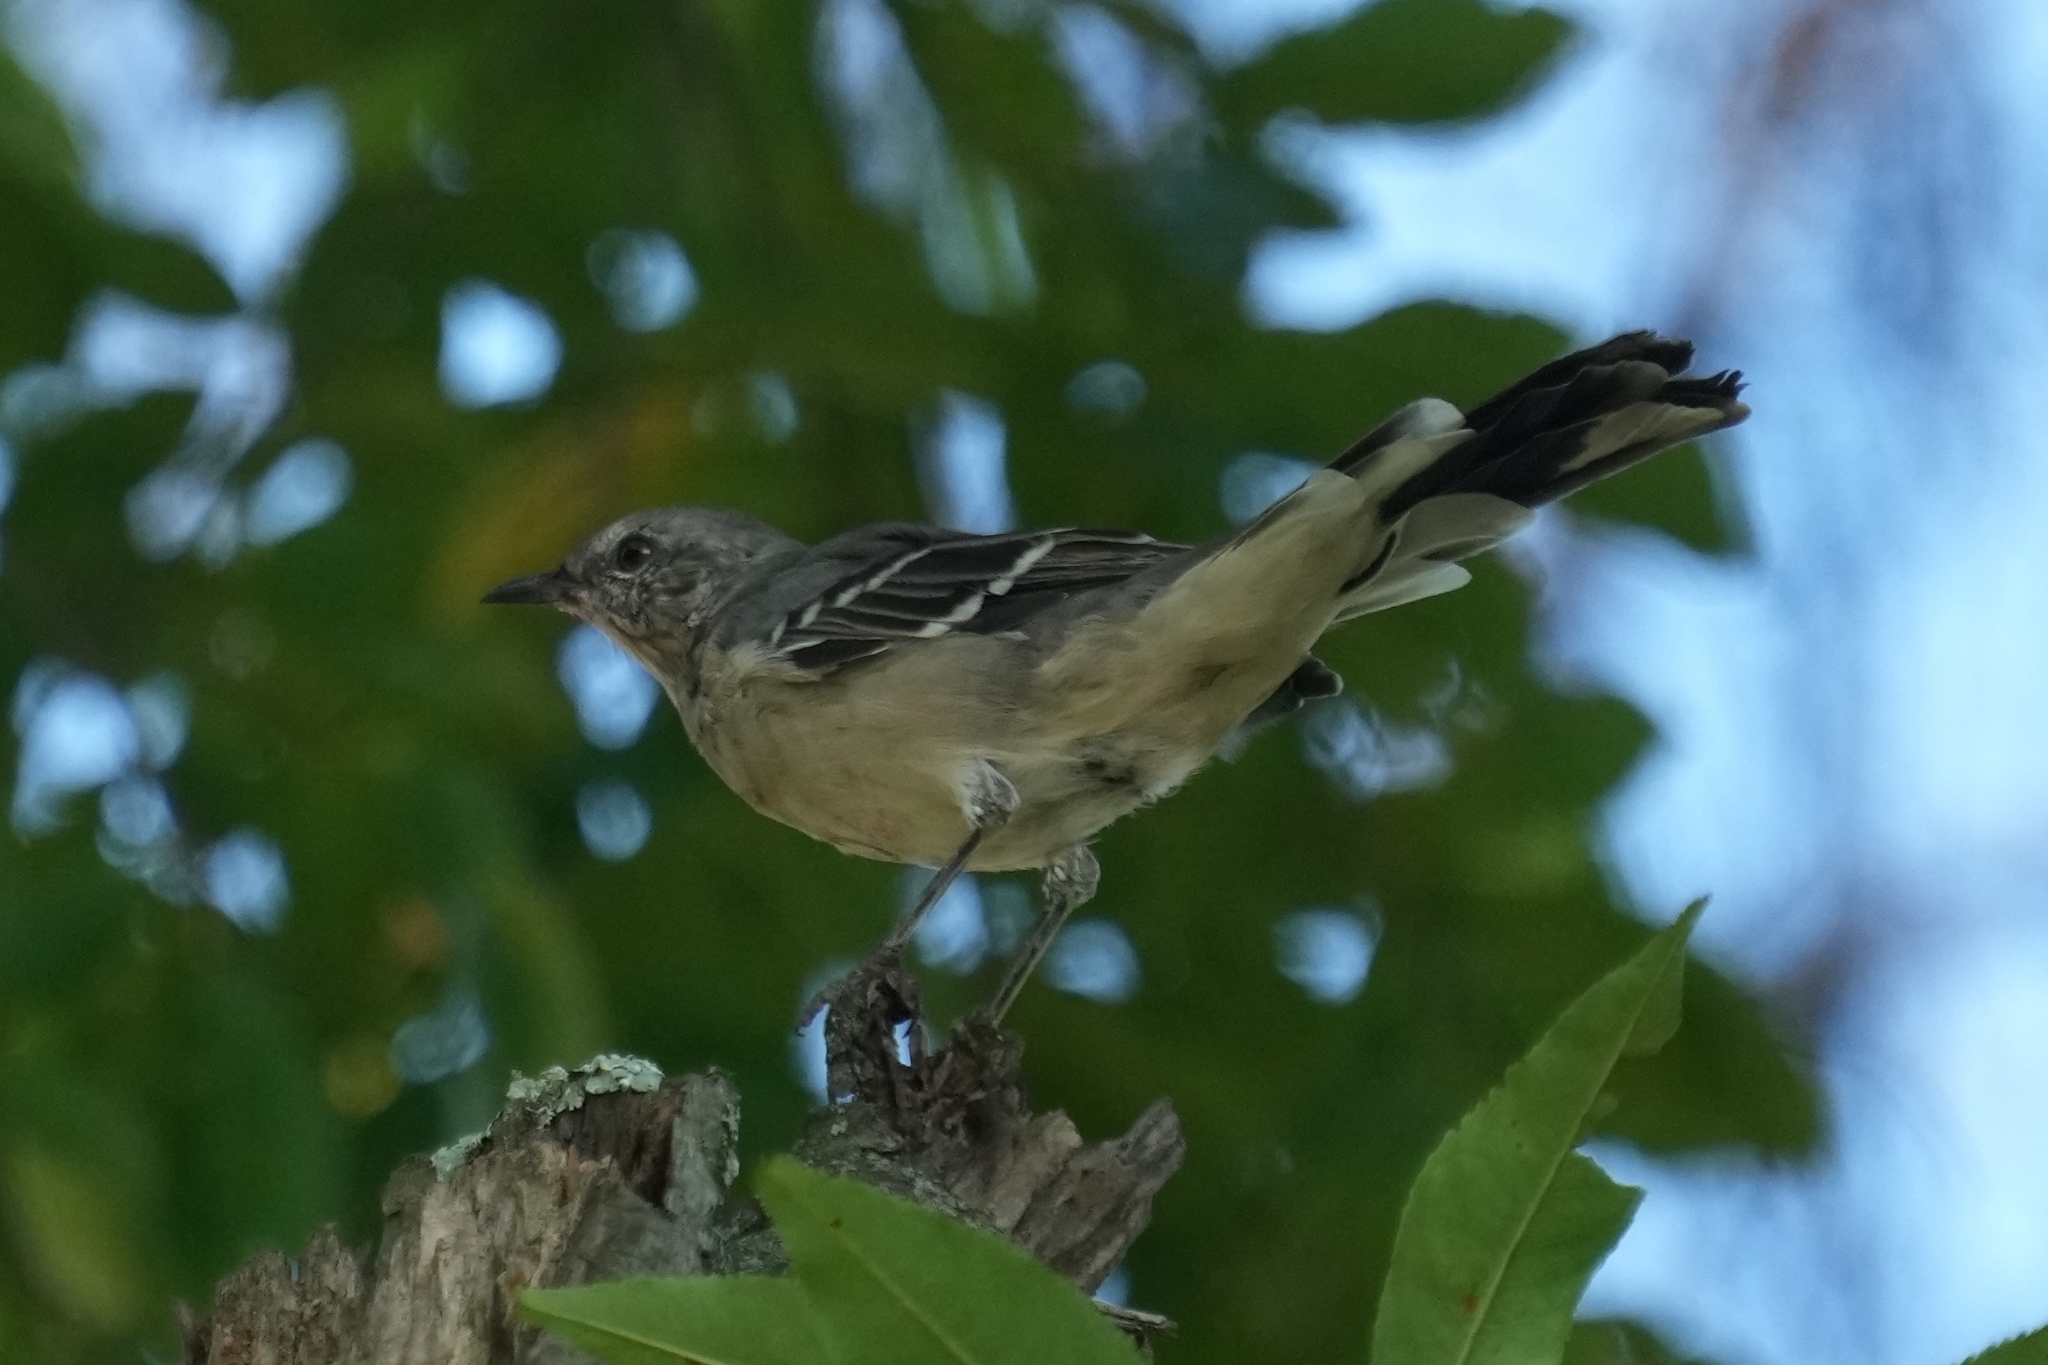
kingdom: Animalia
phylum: Chordata
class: Aves
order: Passeriformes
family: Mimidae
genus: Mimus
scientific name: Mimus polyglottos
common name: Northern mockingbird
